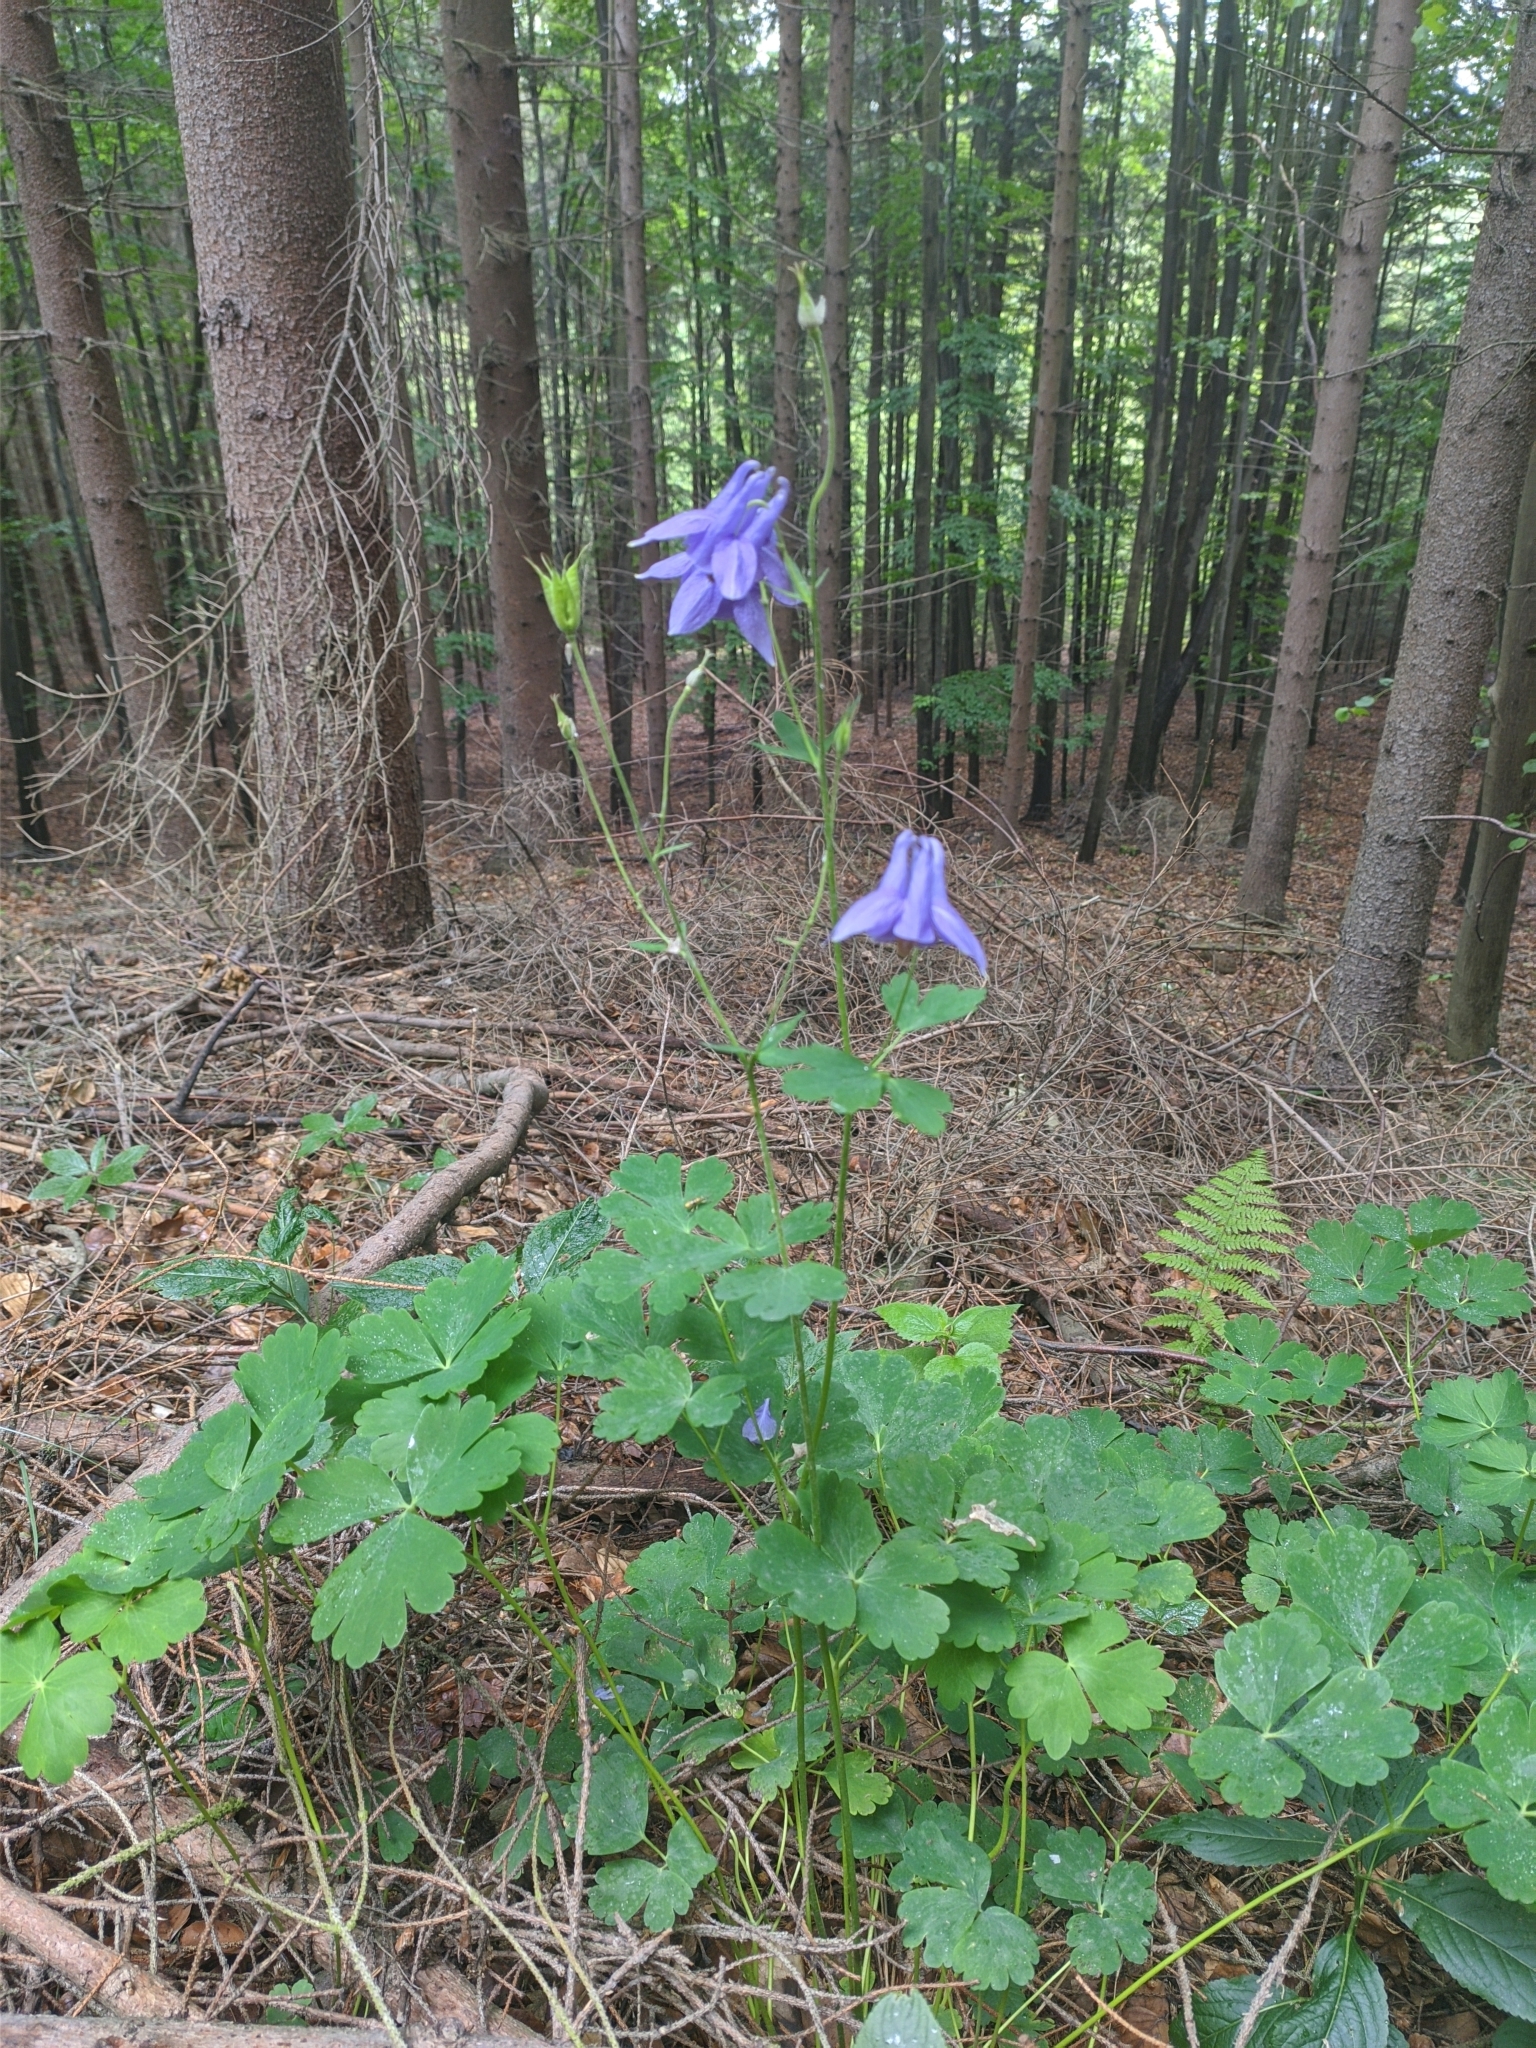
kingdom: Plantae
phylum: Tracheophyta
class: Magnoliopsida
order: Ranunculales
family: Ranunculaceae
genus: Aquilegia
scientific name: Aquilegia vulgaris
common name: Columbine
